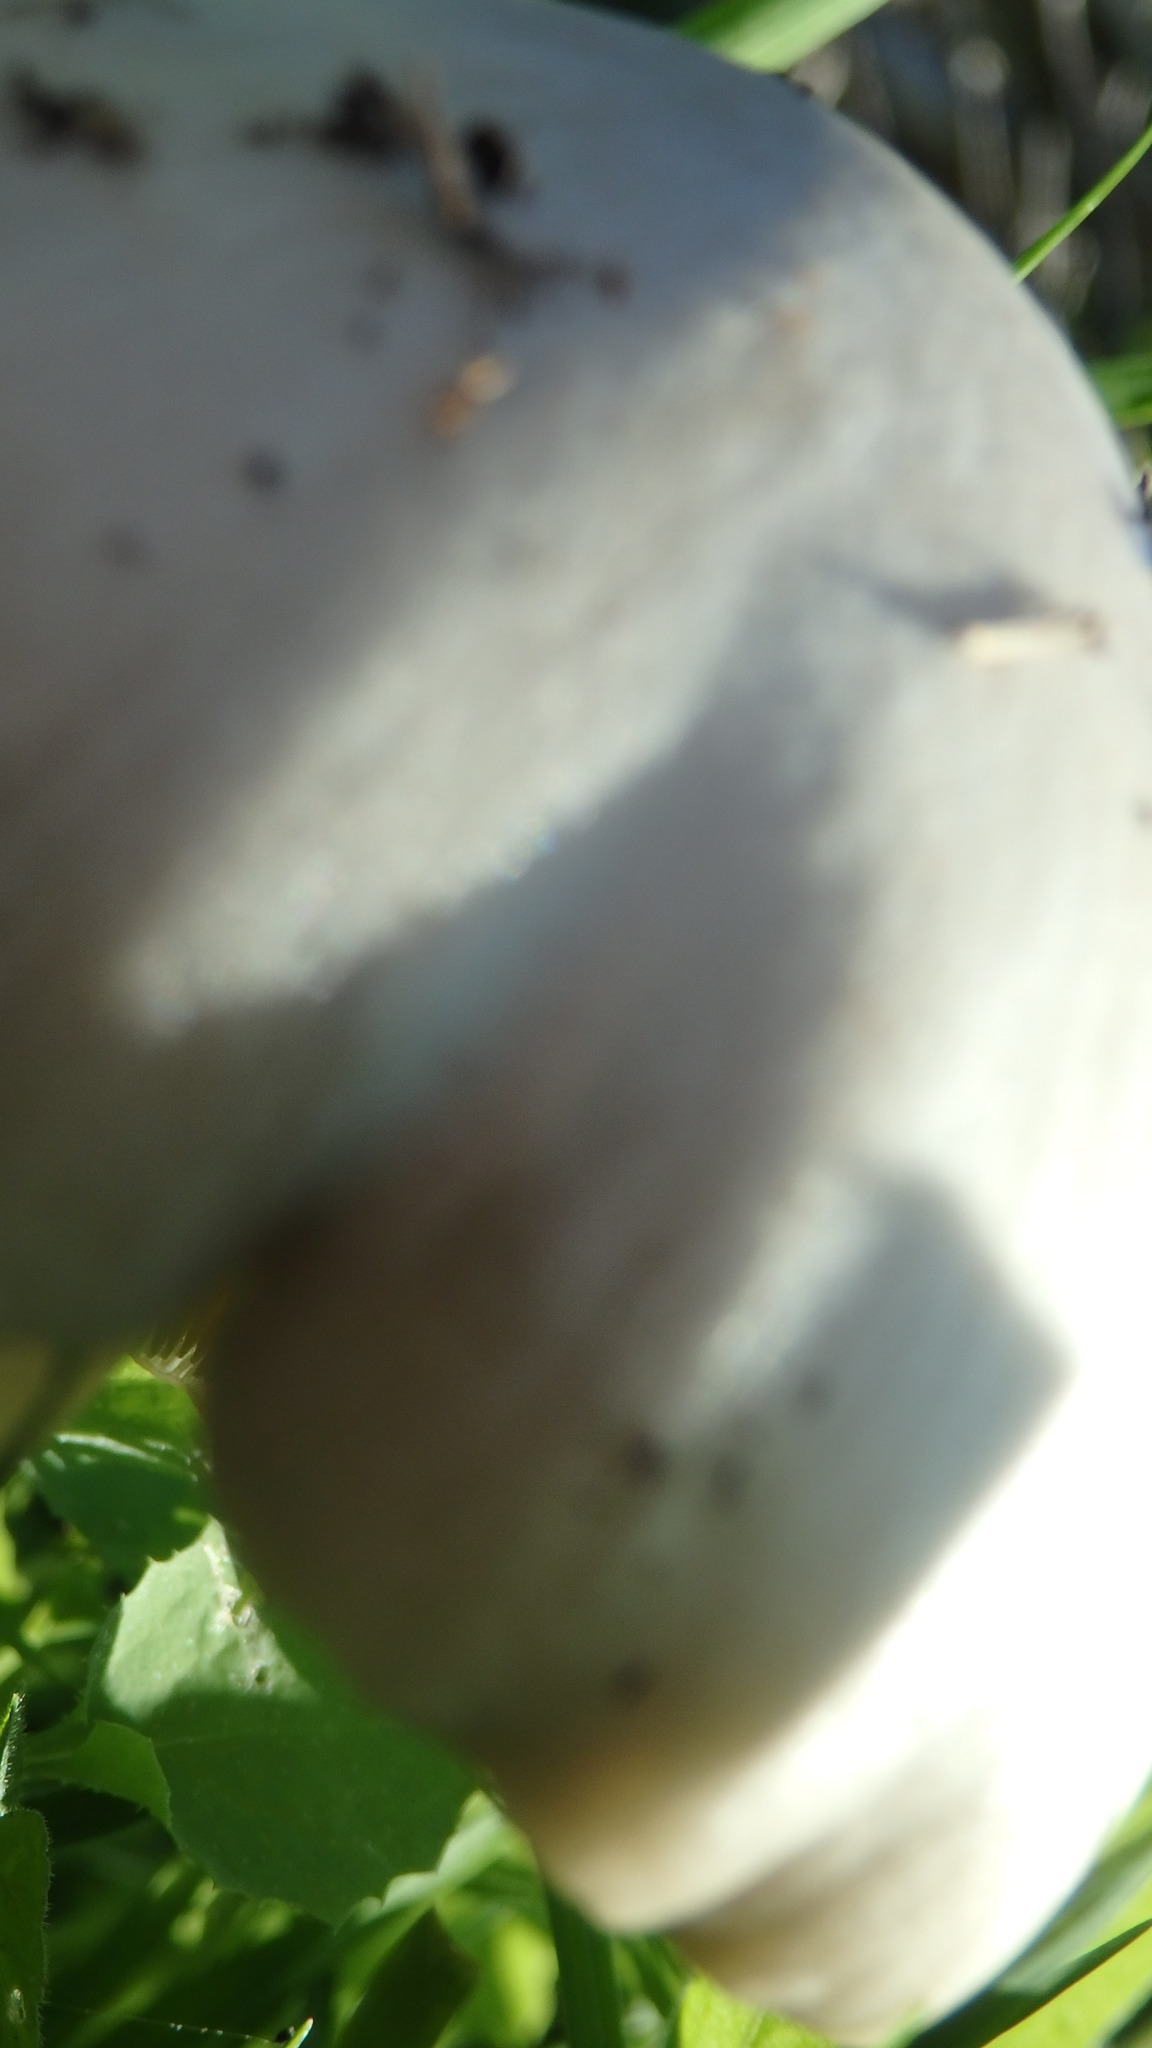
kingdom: Fungi
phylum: Basidiomycota
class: Agaricomycetes
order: Agaricales
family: Pluteaceae
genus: Volvopluteus
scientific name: Volvopluteus gloiocephalus
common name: Stubble rosegill
